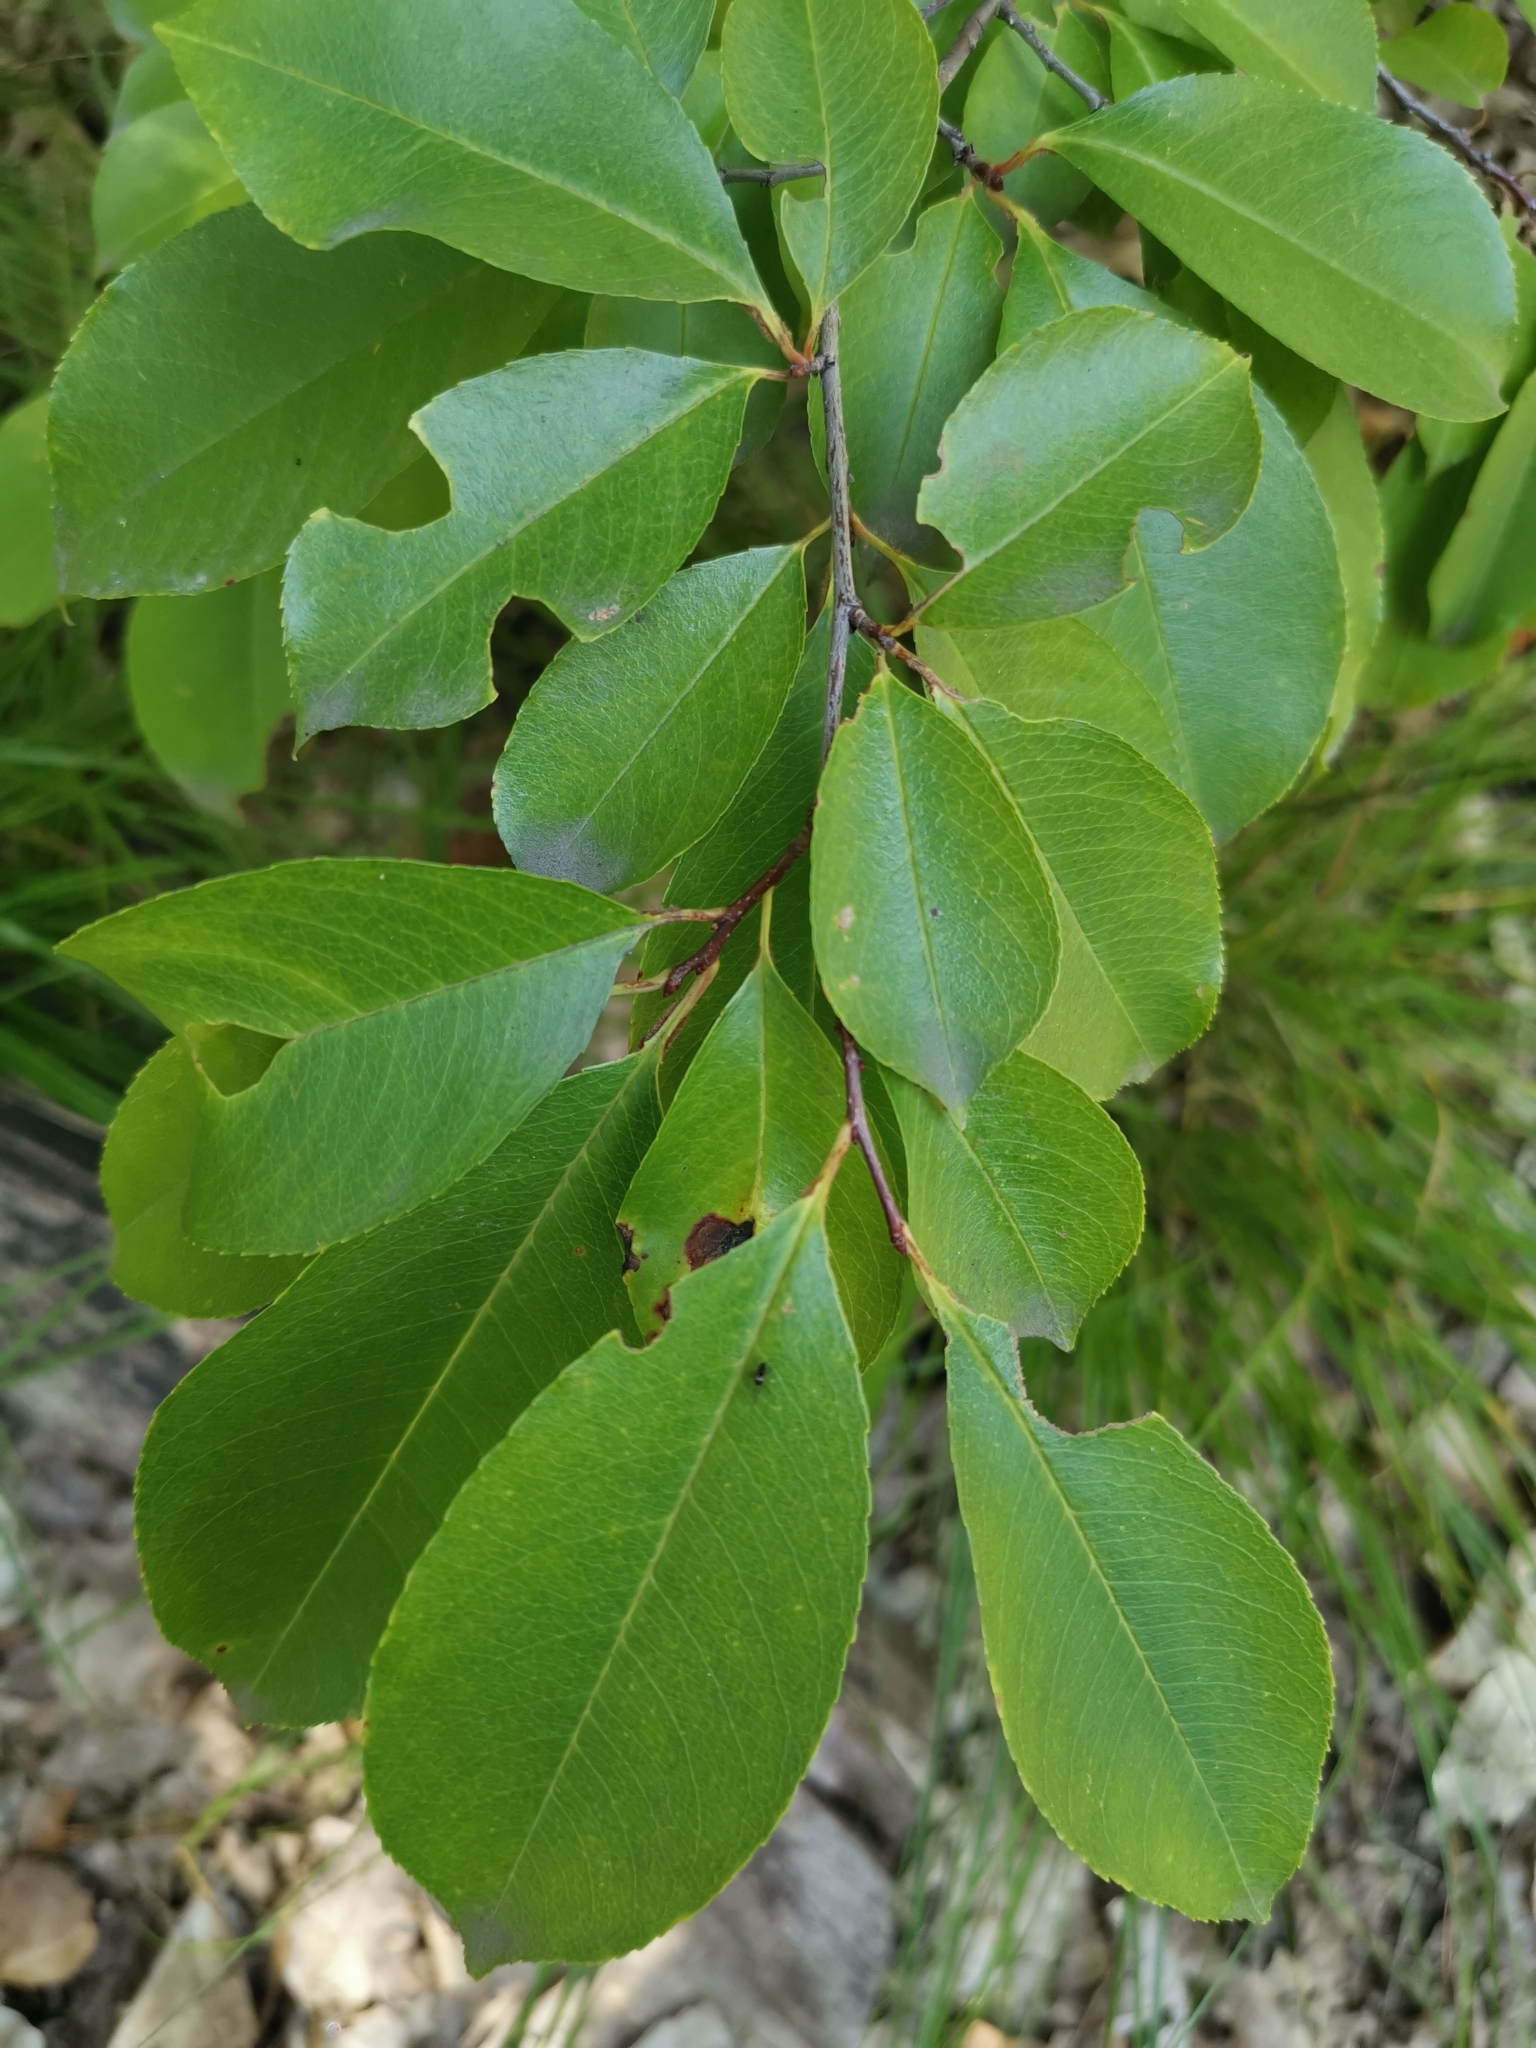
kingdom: Plantae
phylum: Tracheophyta
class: Magnoliopsida
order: Rosales
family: Rosaceae
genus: Prunus
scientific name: Prunus serotina
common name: Black cherry
